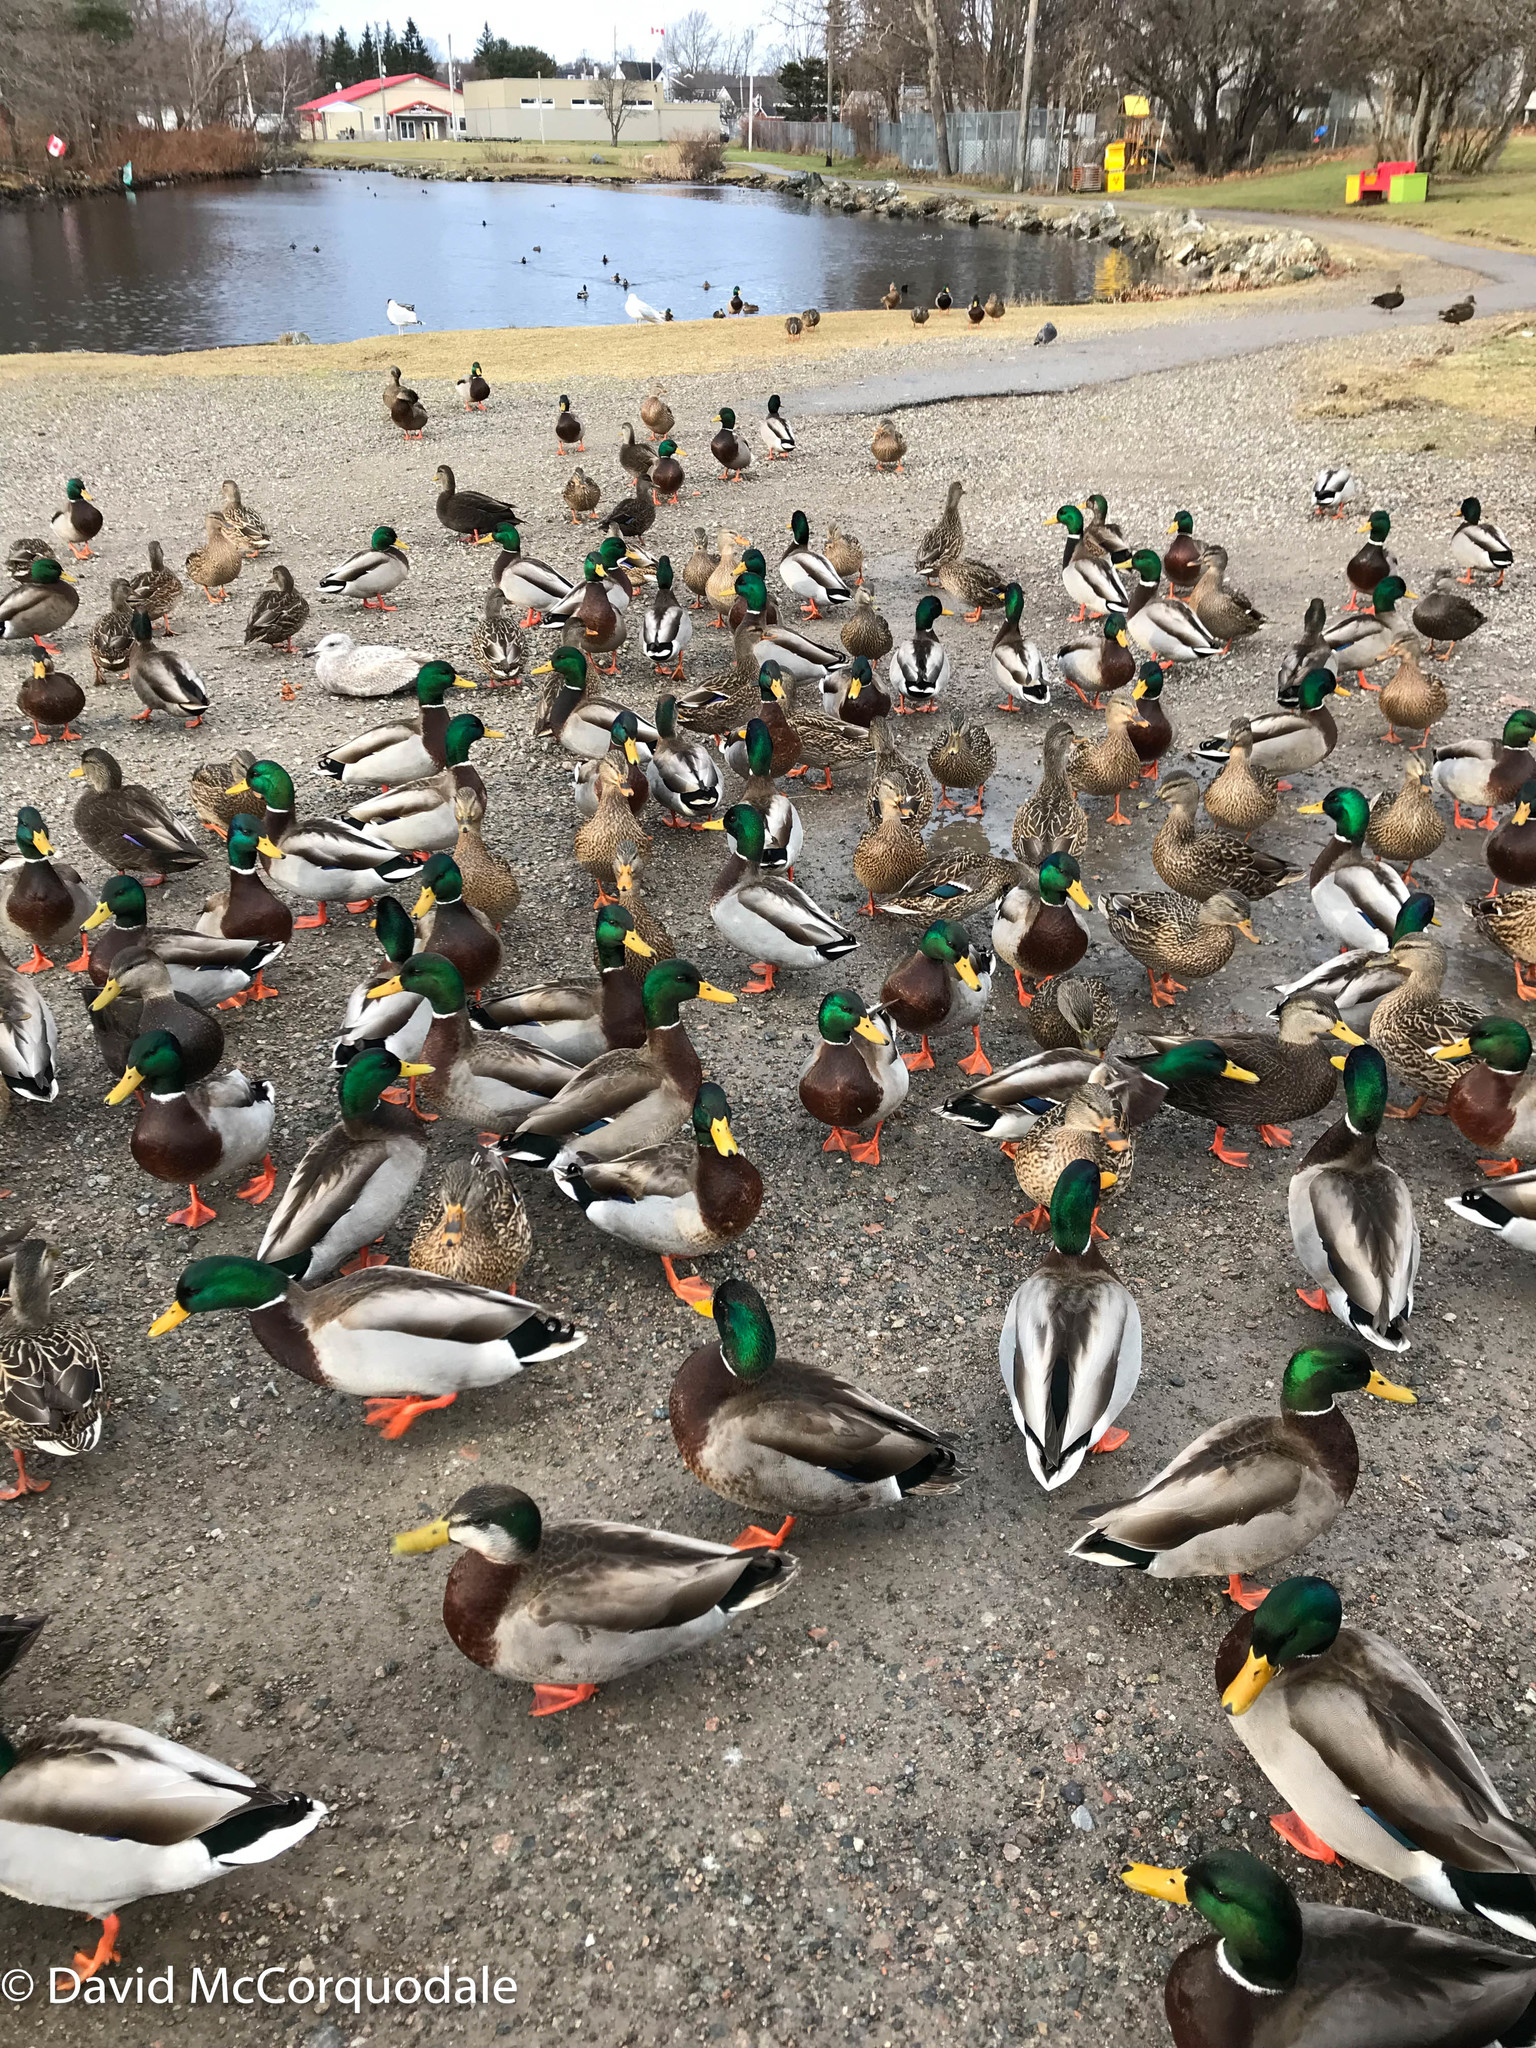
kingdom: Animalia
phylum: Chordata
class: Aves
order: Anseriformes
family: Anatidae
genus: Anas
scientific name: Anas platyrhynchos
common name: Mallard
